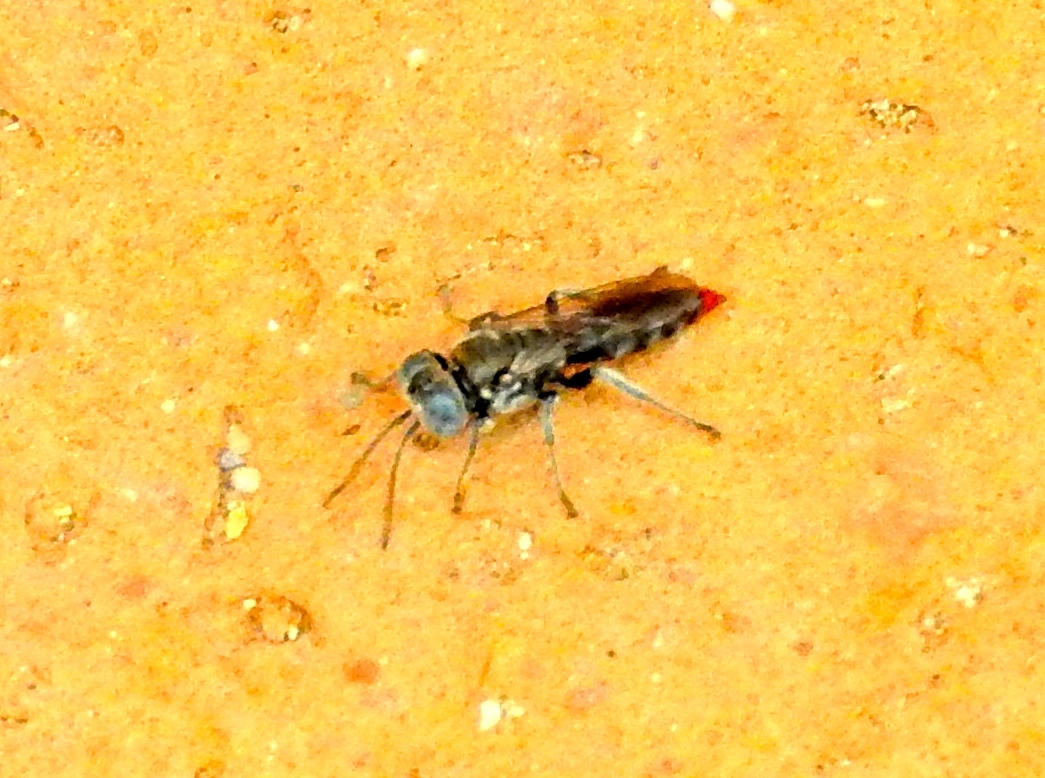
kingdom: Animalia
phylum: Arthropoda
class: Insecta
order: Hymenoptera
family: Crabronidae
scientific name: Crabronidae
